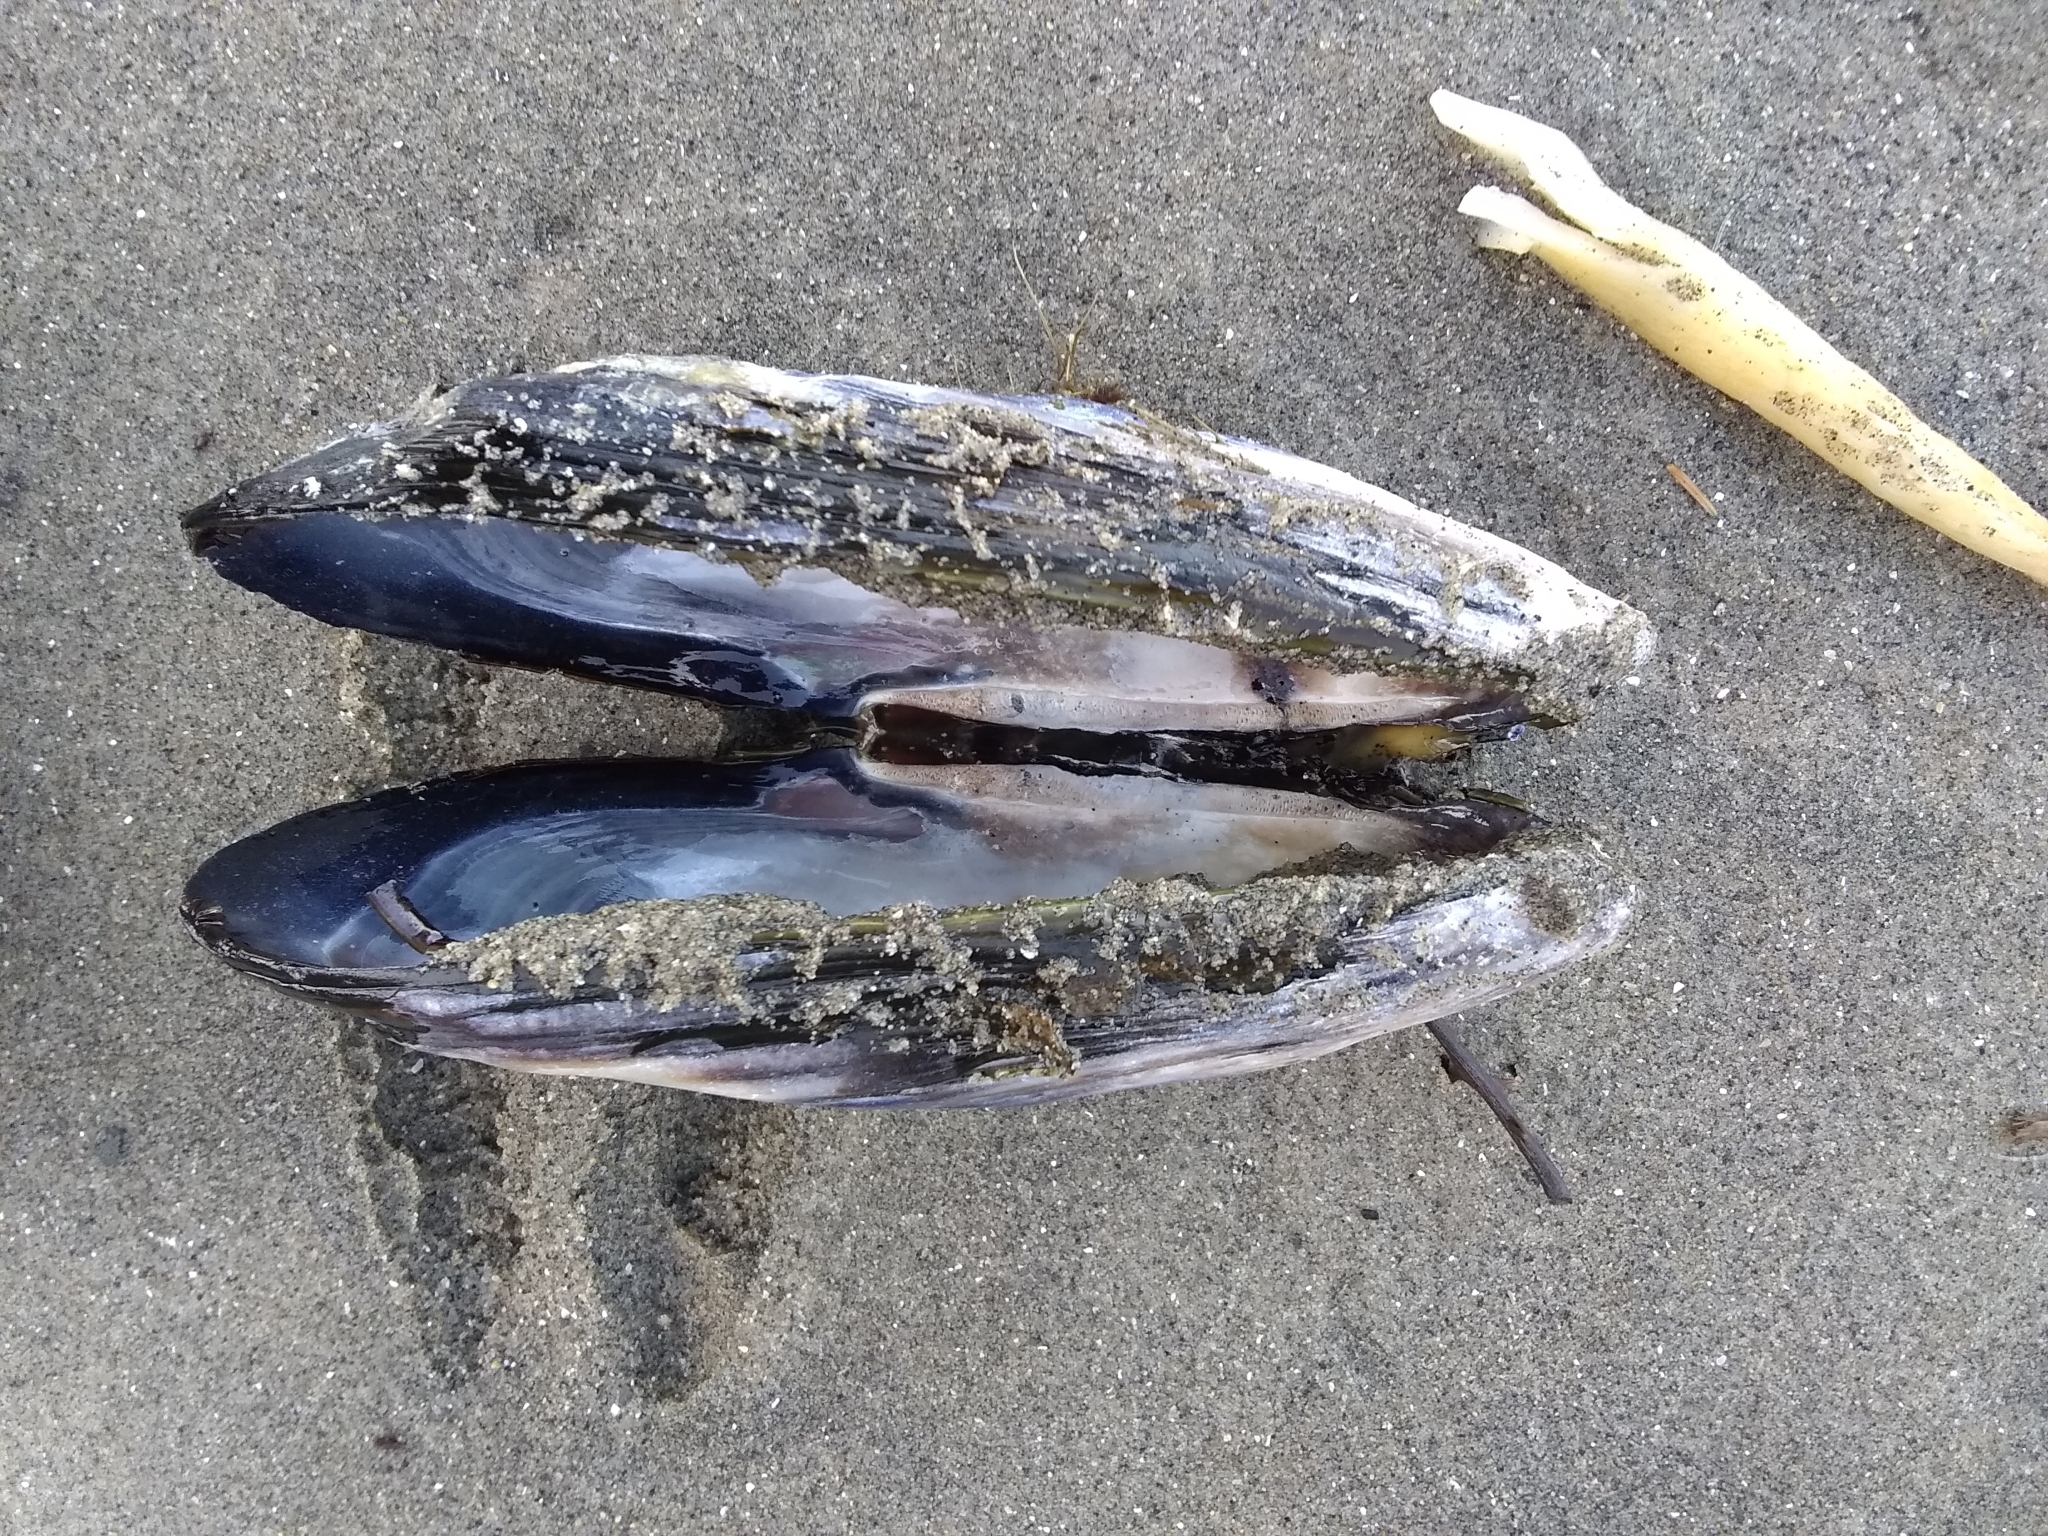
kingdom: Animalia
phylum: Mollusca
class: Bivalvia
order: Mytilida
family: Mytilidae
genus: Mytilus
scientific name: Mytilus californianus
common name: California mussel
